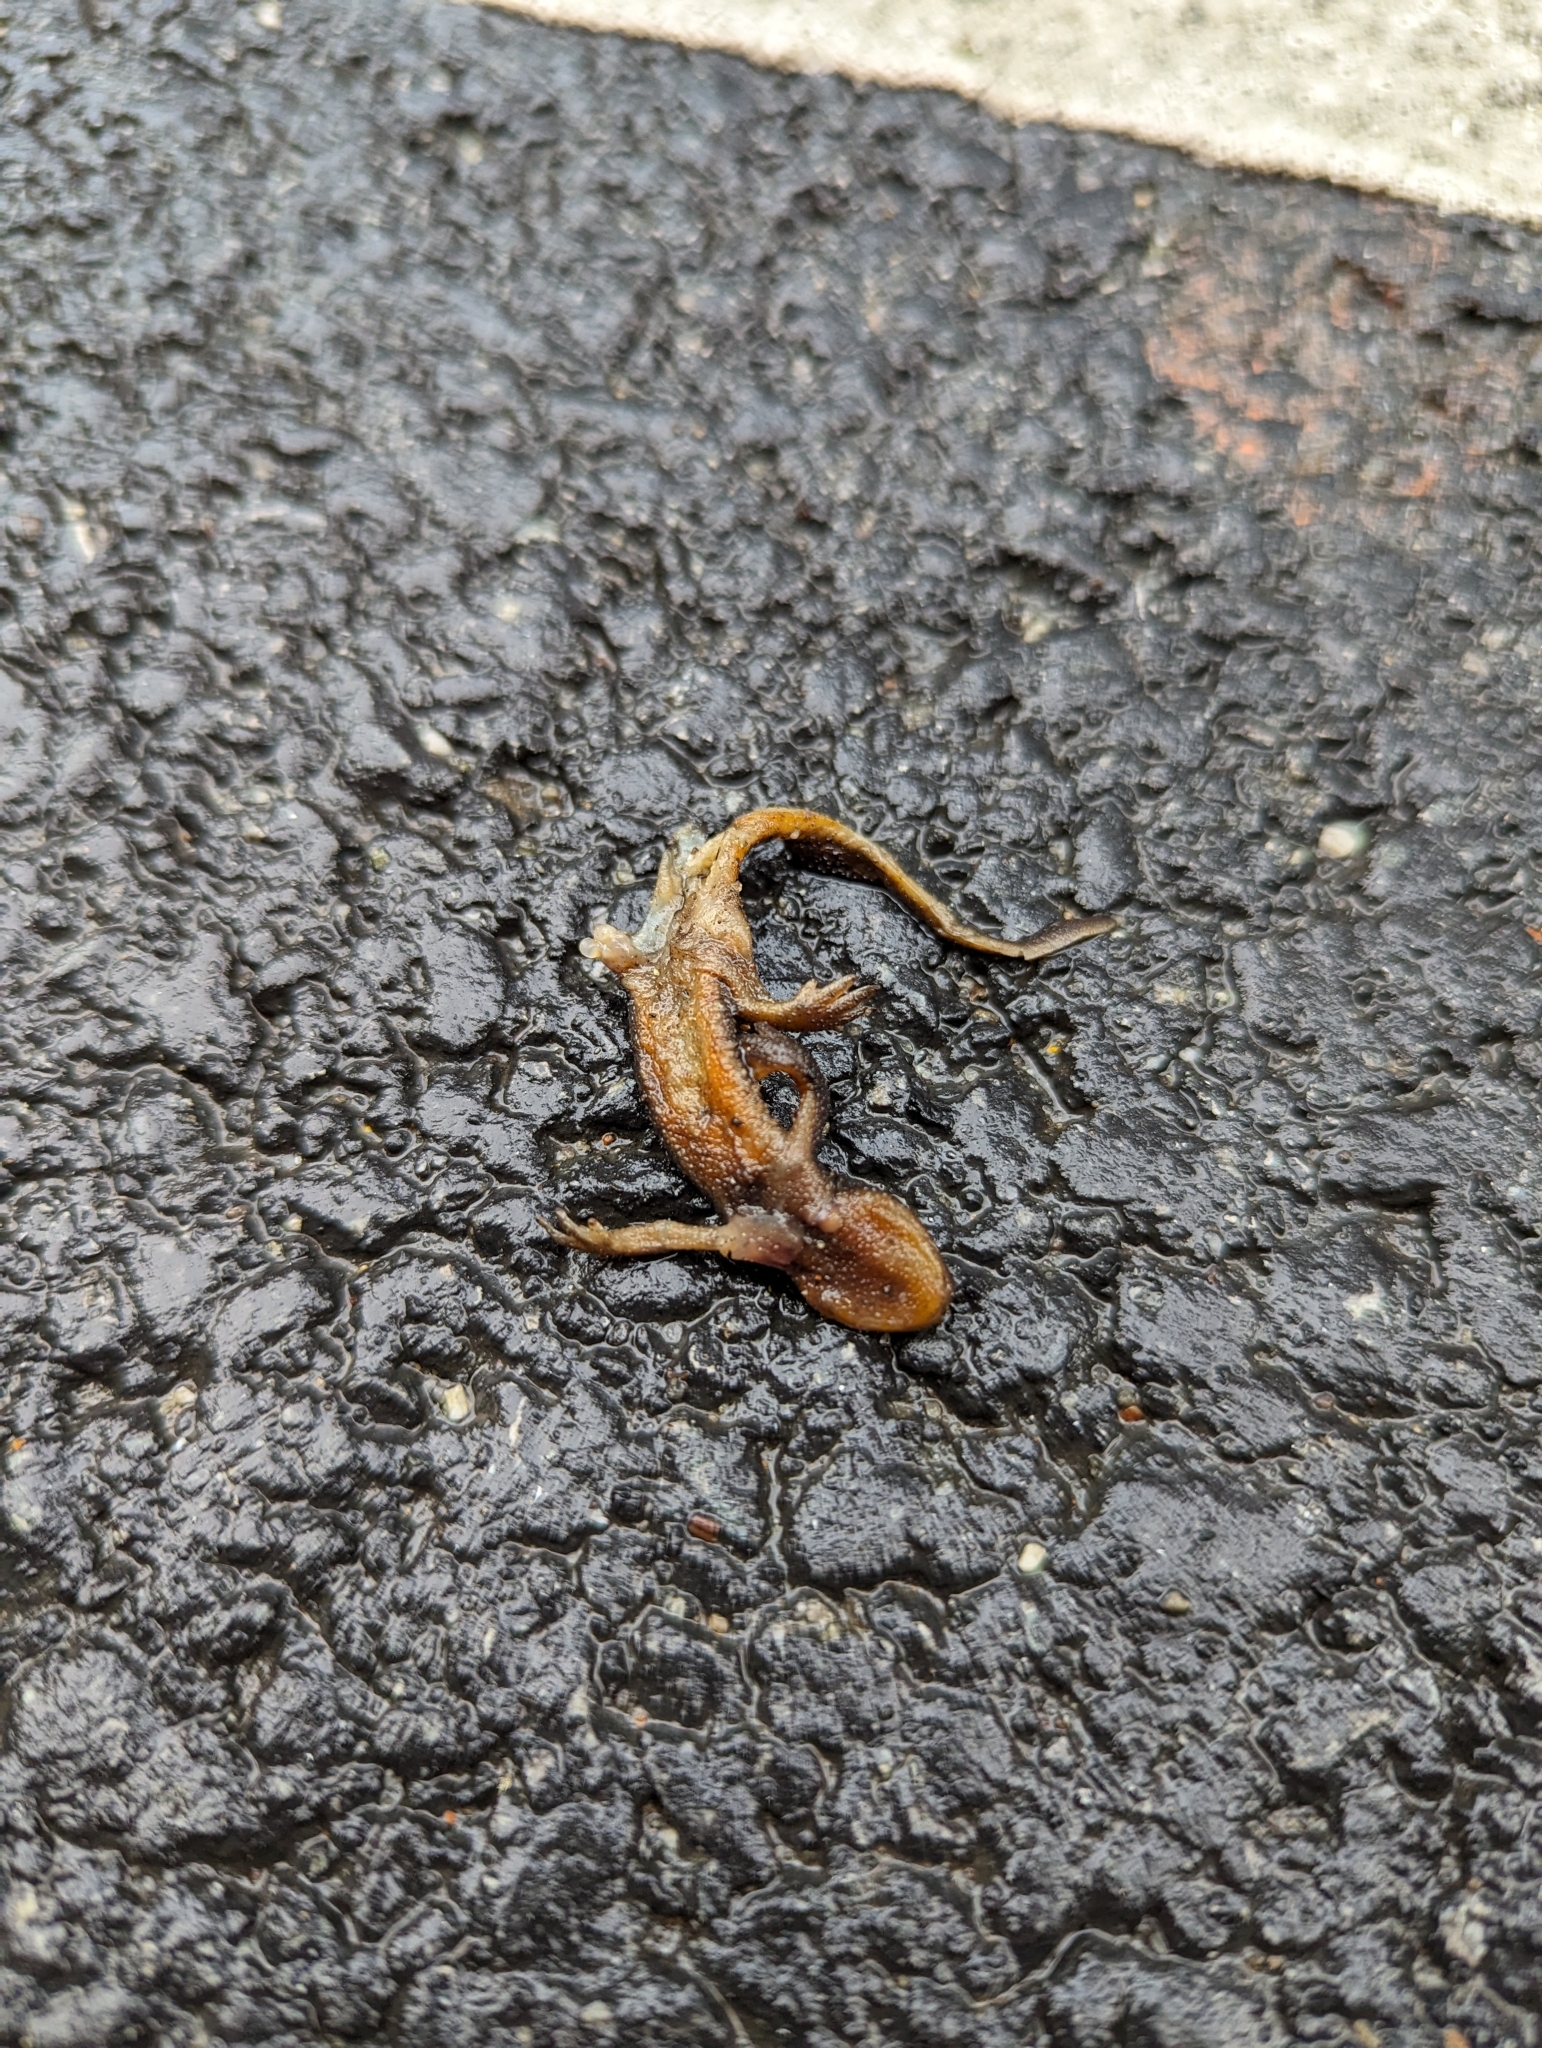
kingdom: Animalia
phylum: Chordata
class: Amphibia
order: Caudata
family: Salamandridae
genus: Taricha
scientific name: Taricha
